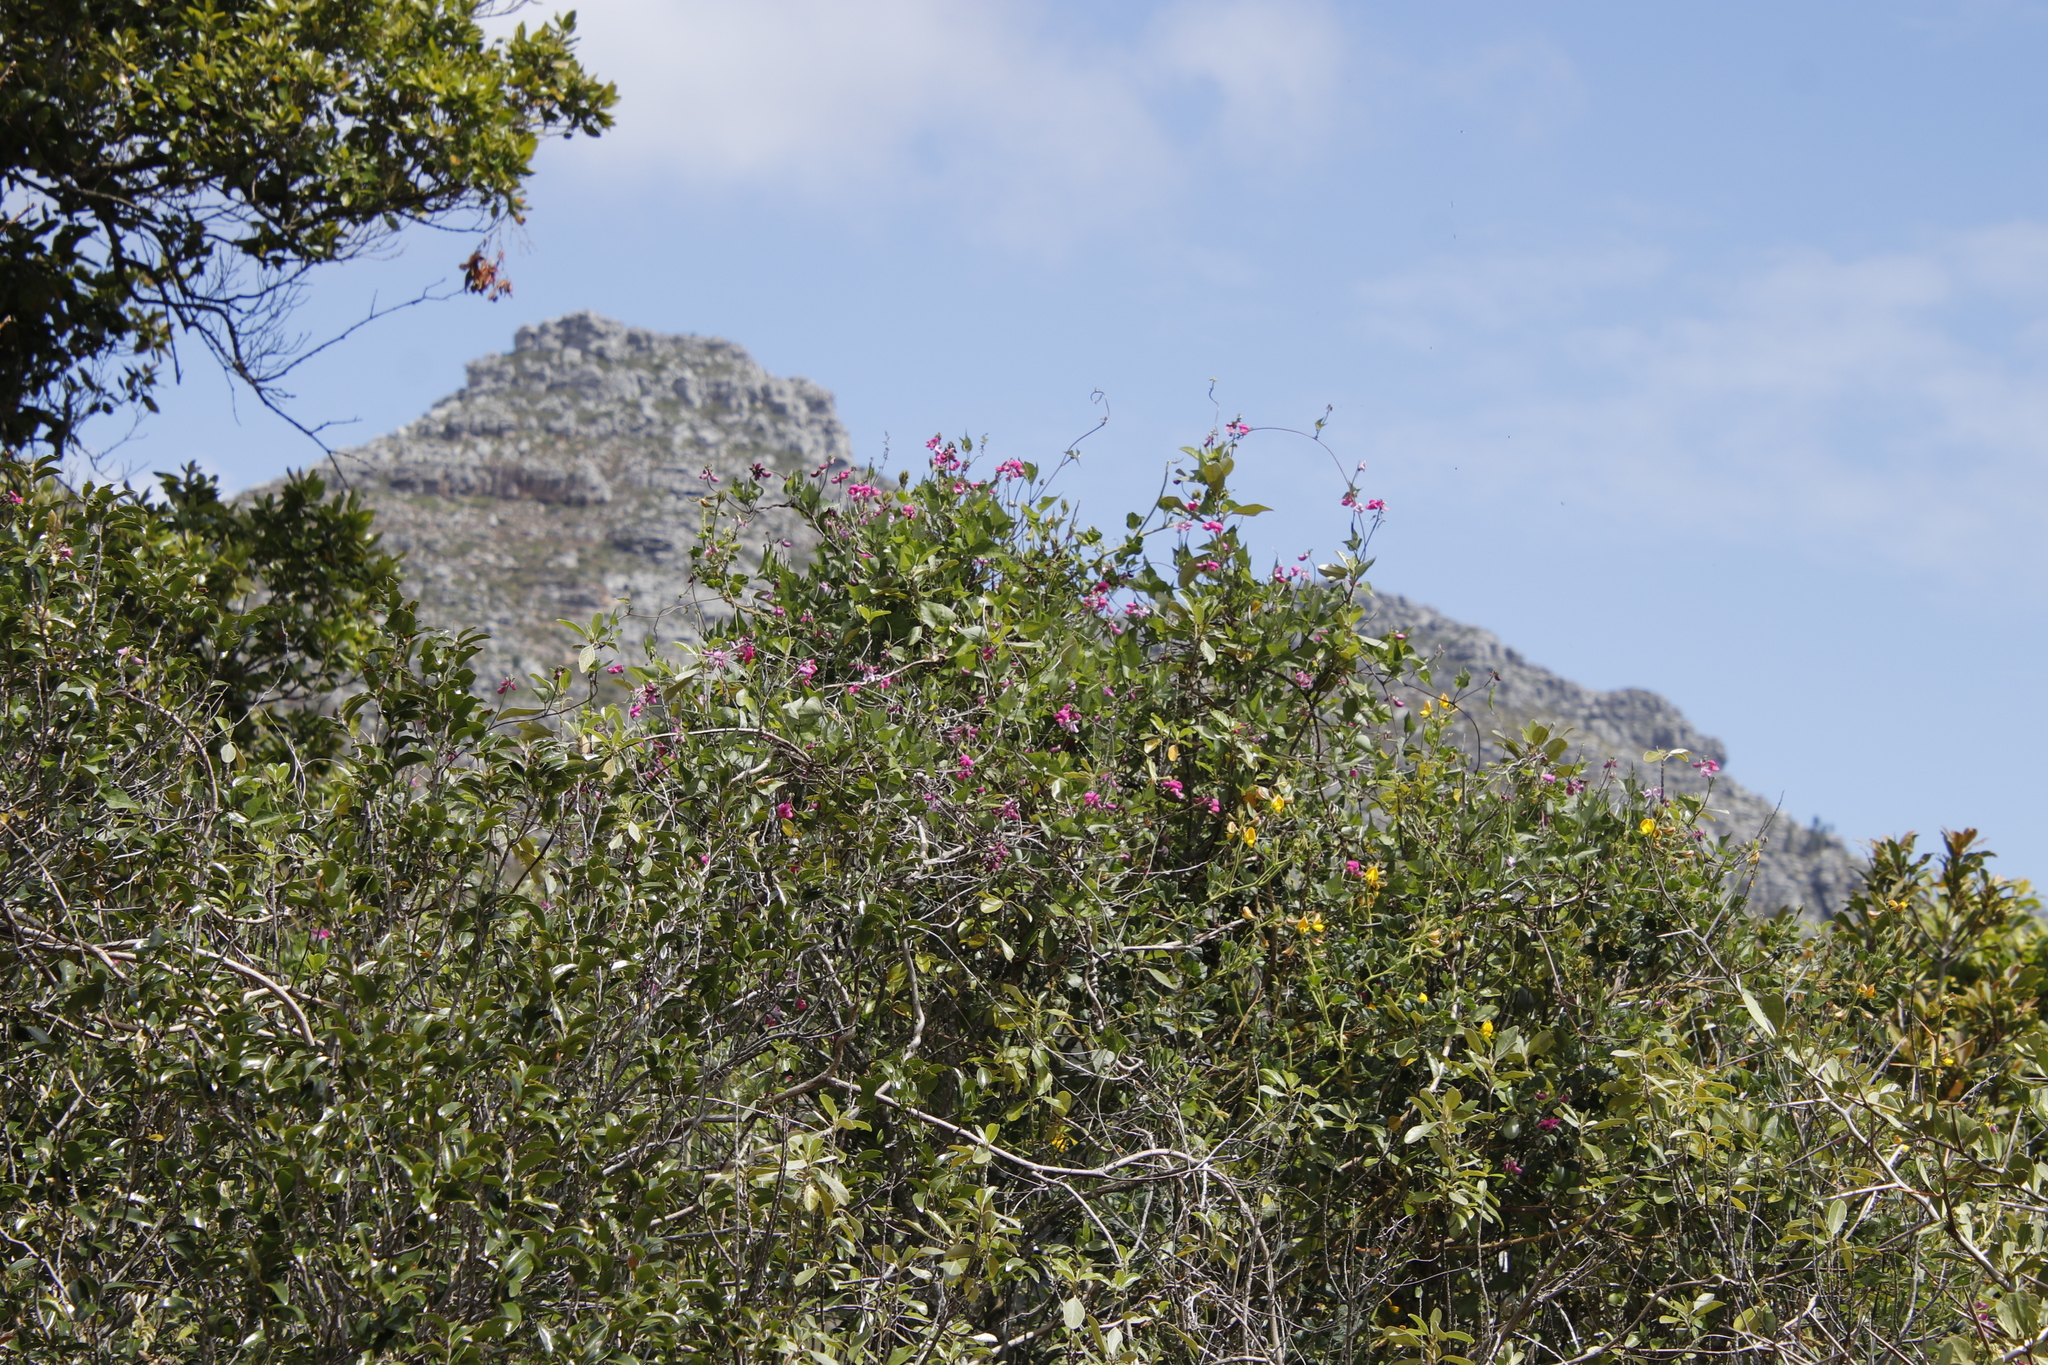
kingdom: Plantae
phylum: Tracheophyta
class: Magnoliopsida
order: Fabales
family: Fabaceae
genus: Dipogon
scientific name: Dipogon lignosus
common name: Okie bean
